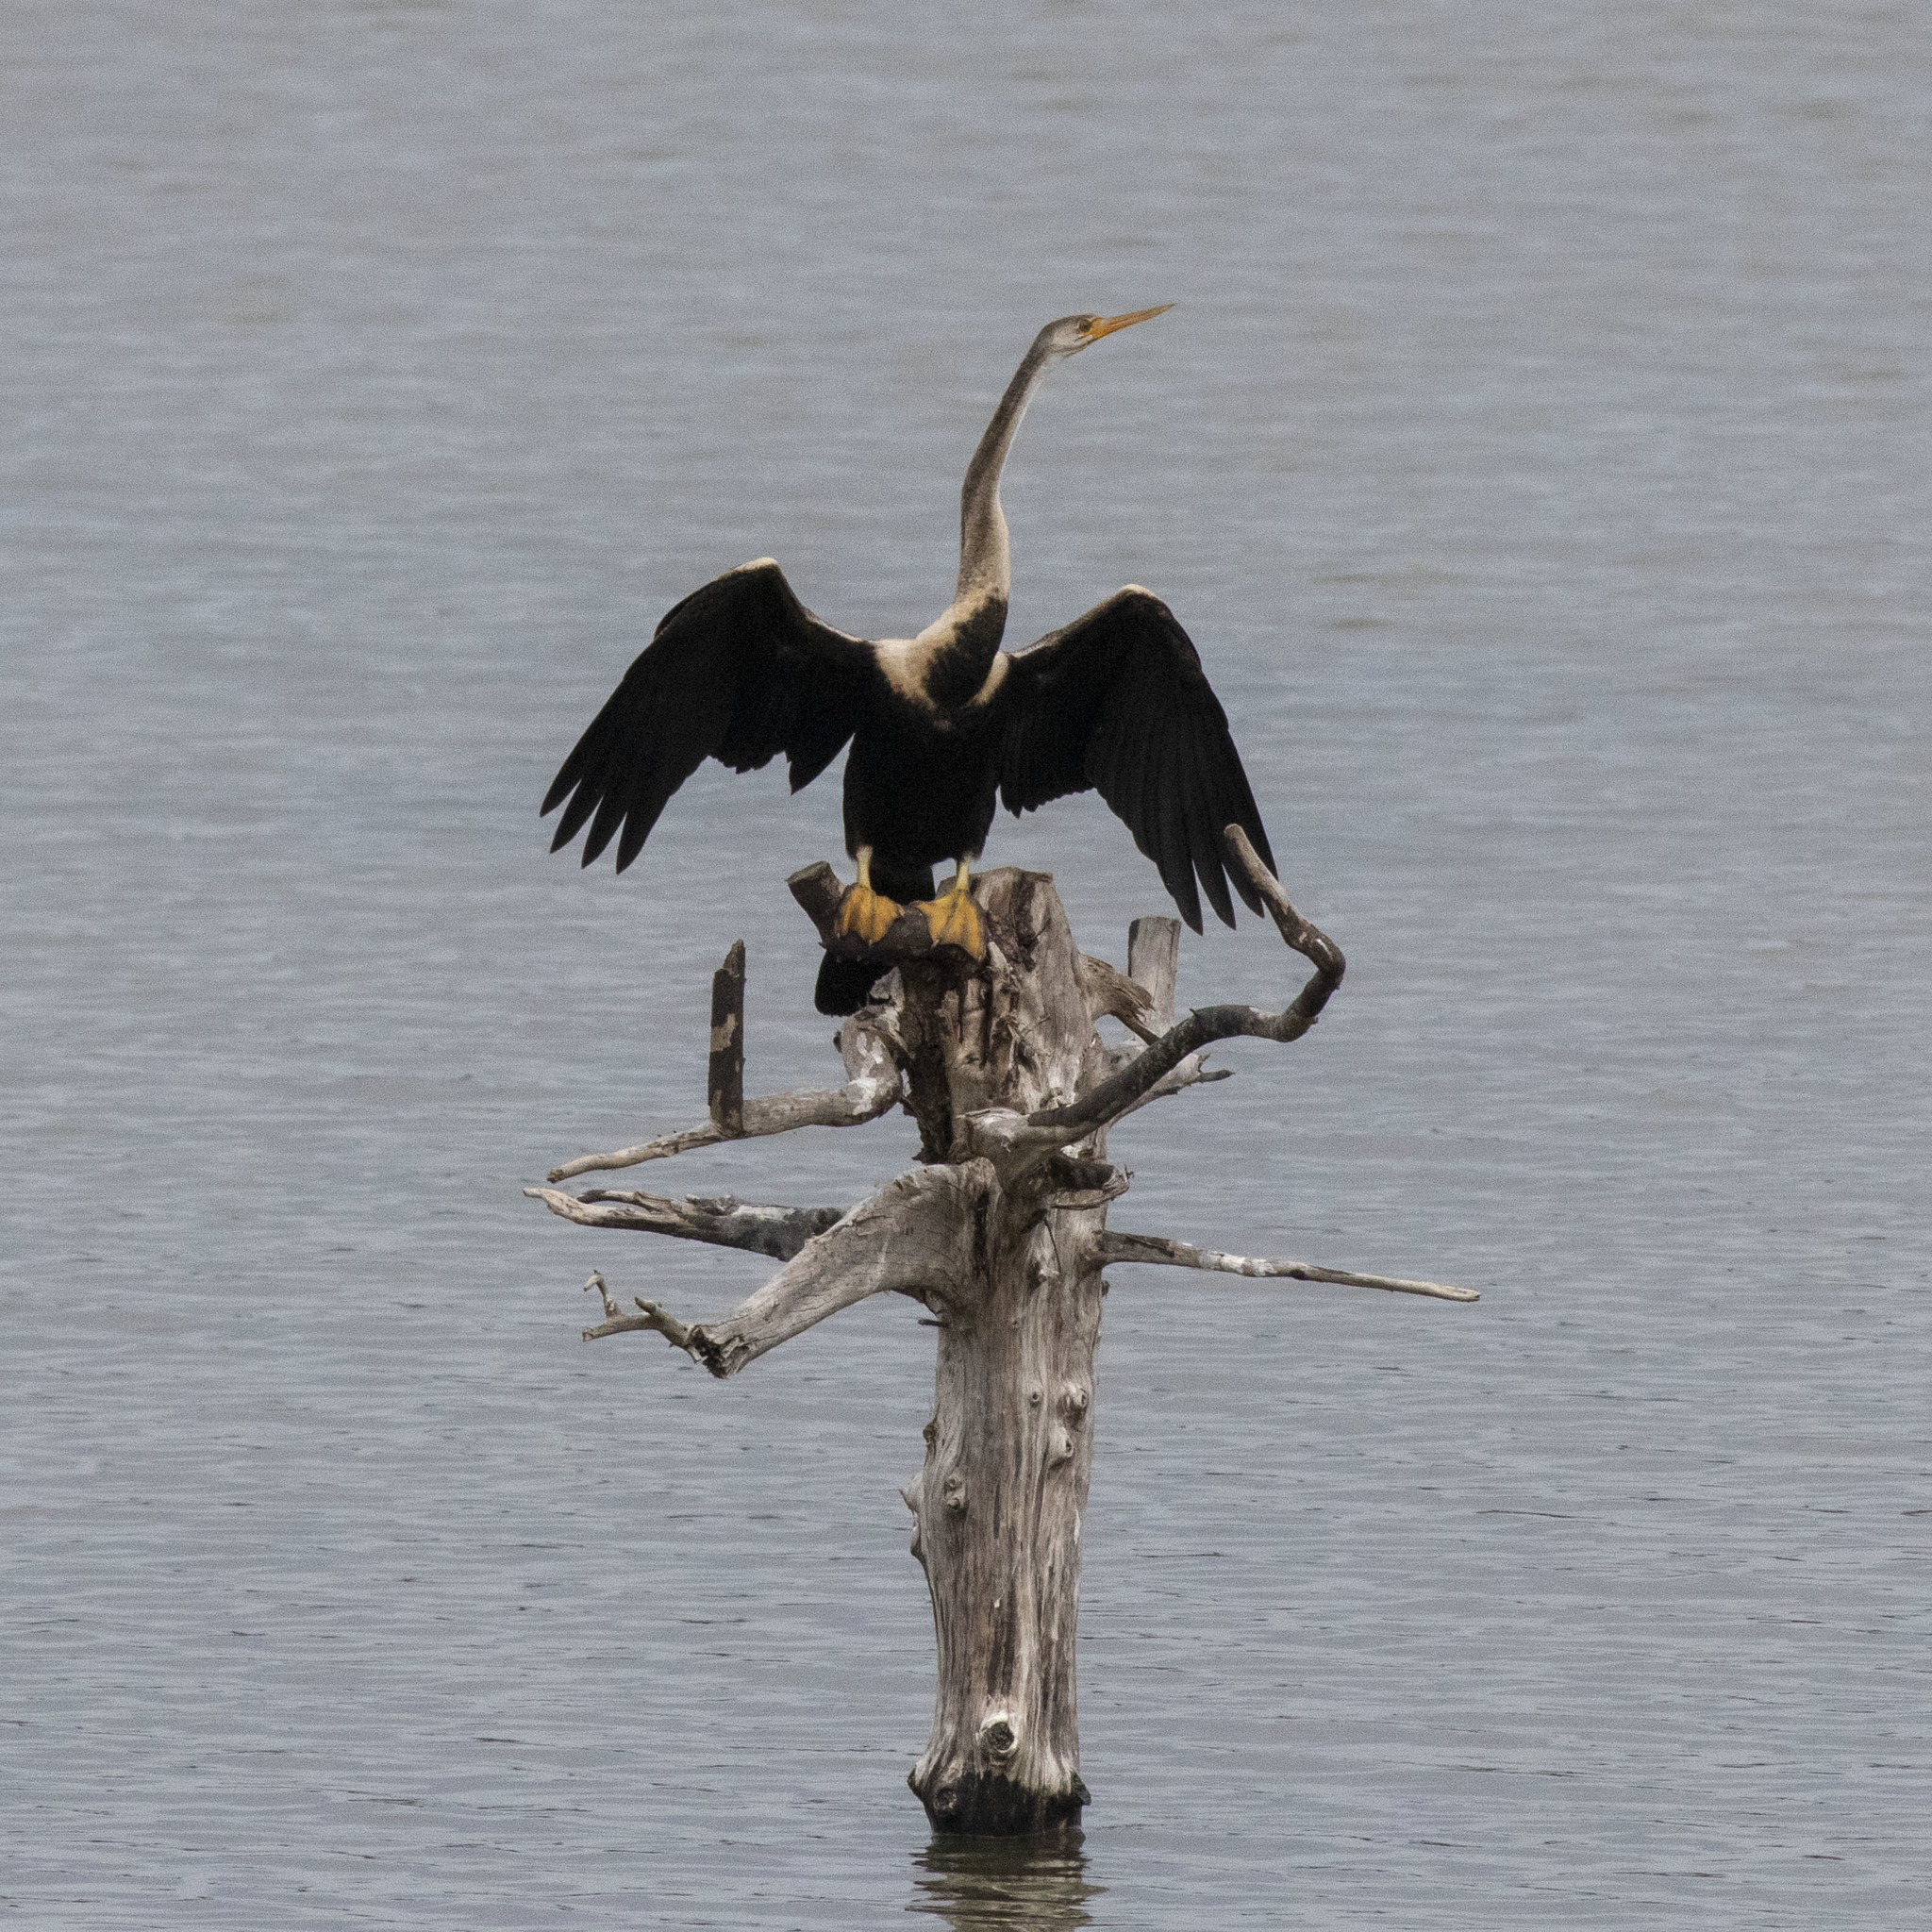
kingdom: Animalia
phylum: Chordata
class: Aves
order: Suliformes
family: Anhingidae
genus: Anhinga
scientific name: Anhinga melanogaster
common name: Oriental darter
